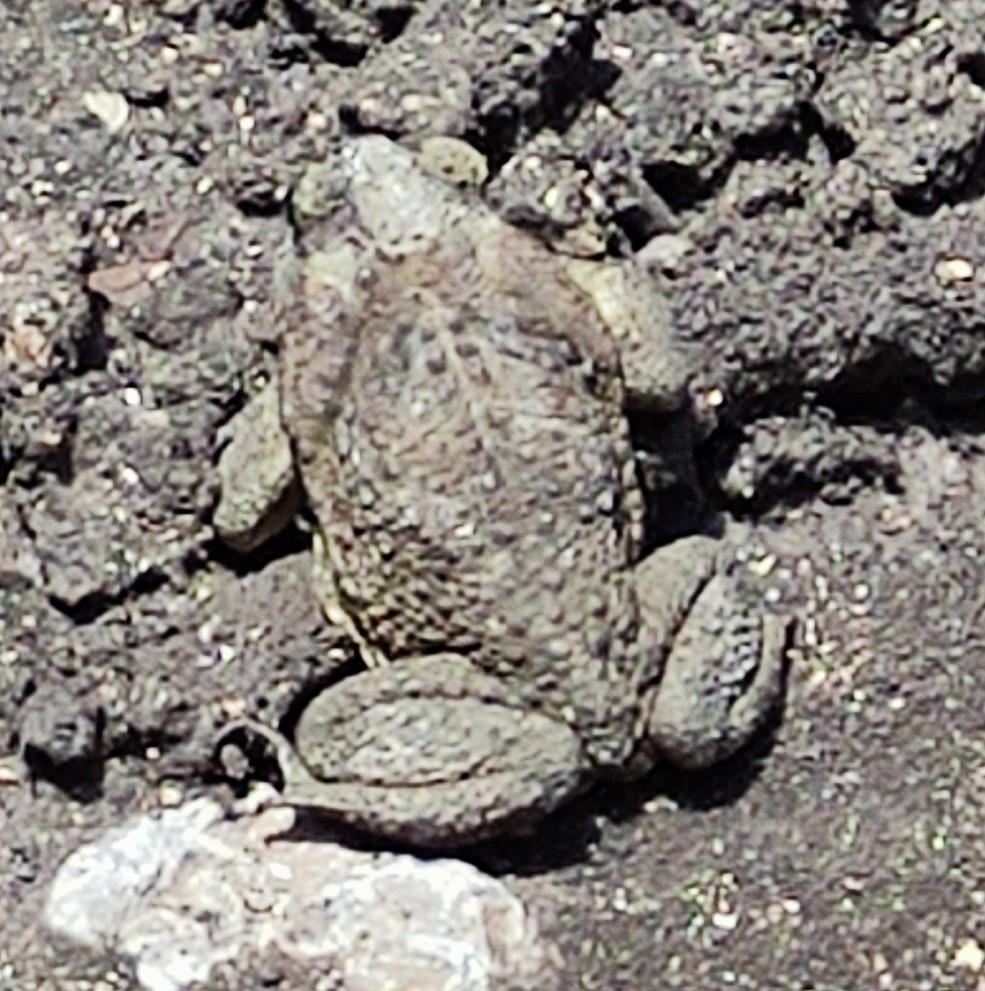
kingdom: Animalia
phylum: Chordata
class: Amphibia
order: Anura
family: Bufonidae
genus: Rhinella
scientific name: Rhinella horribilis
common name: Mesoamerican cane toad
